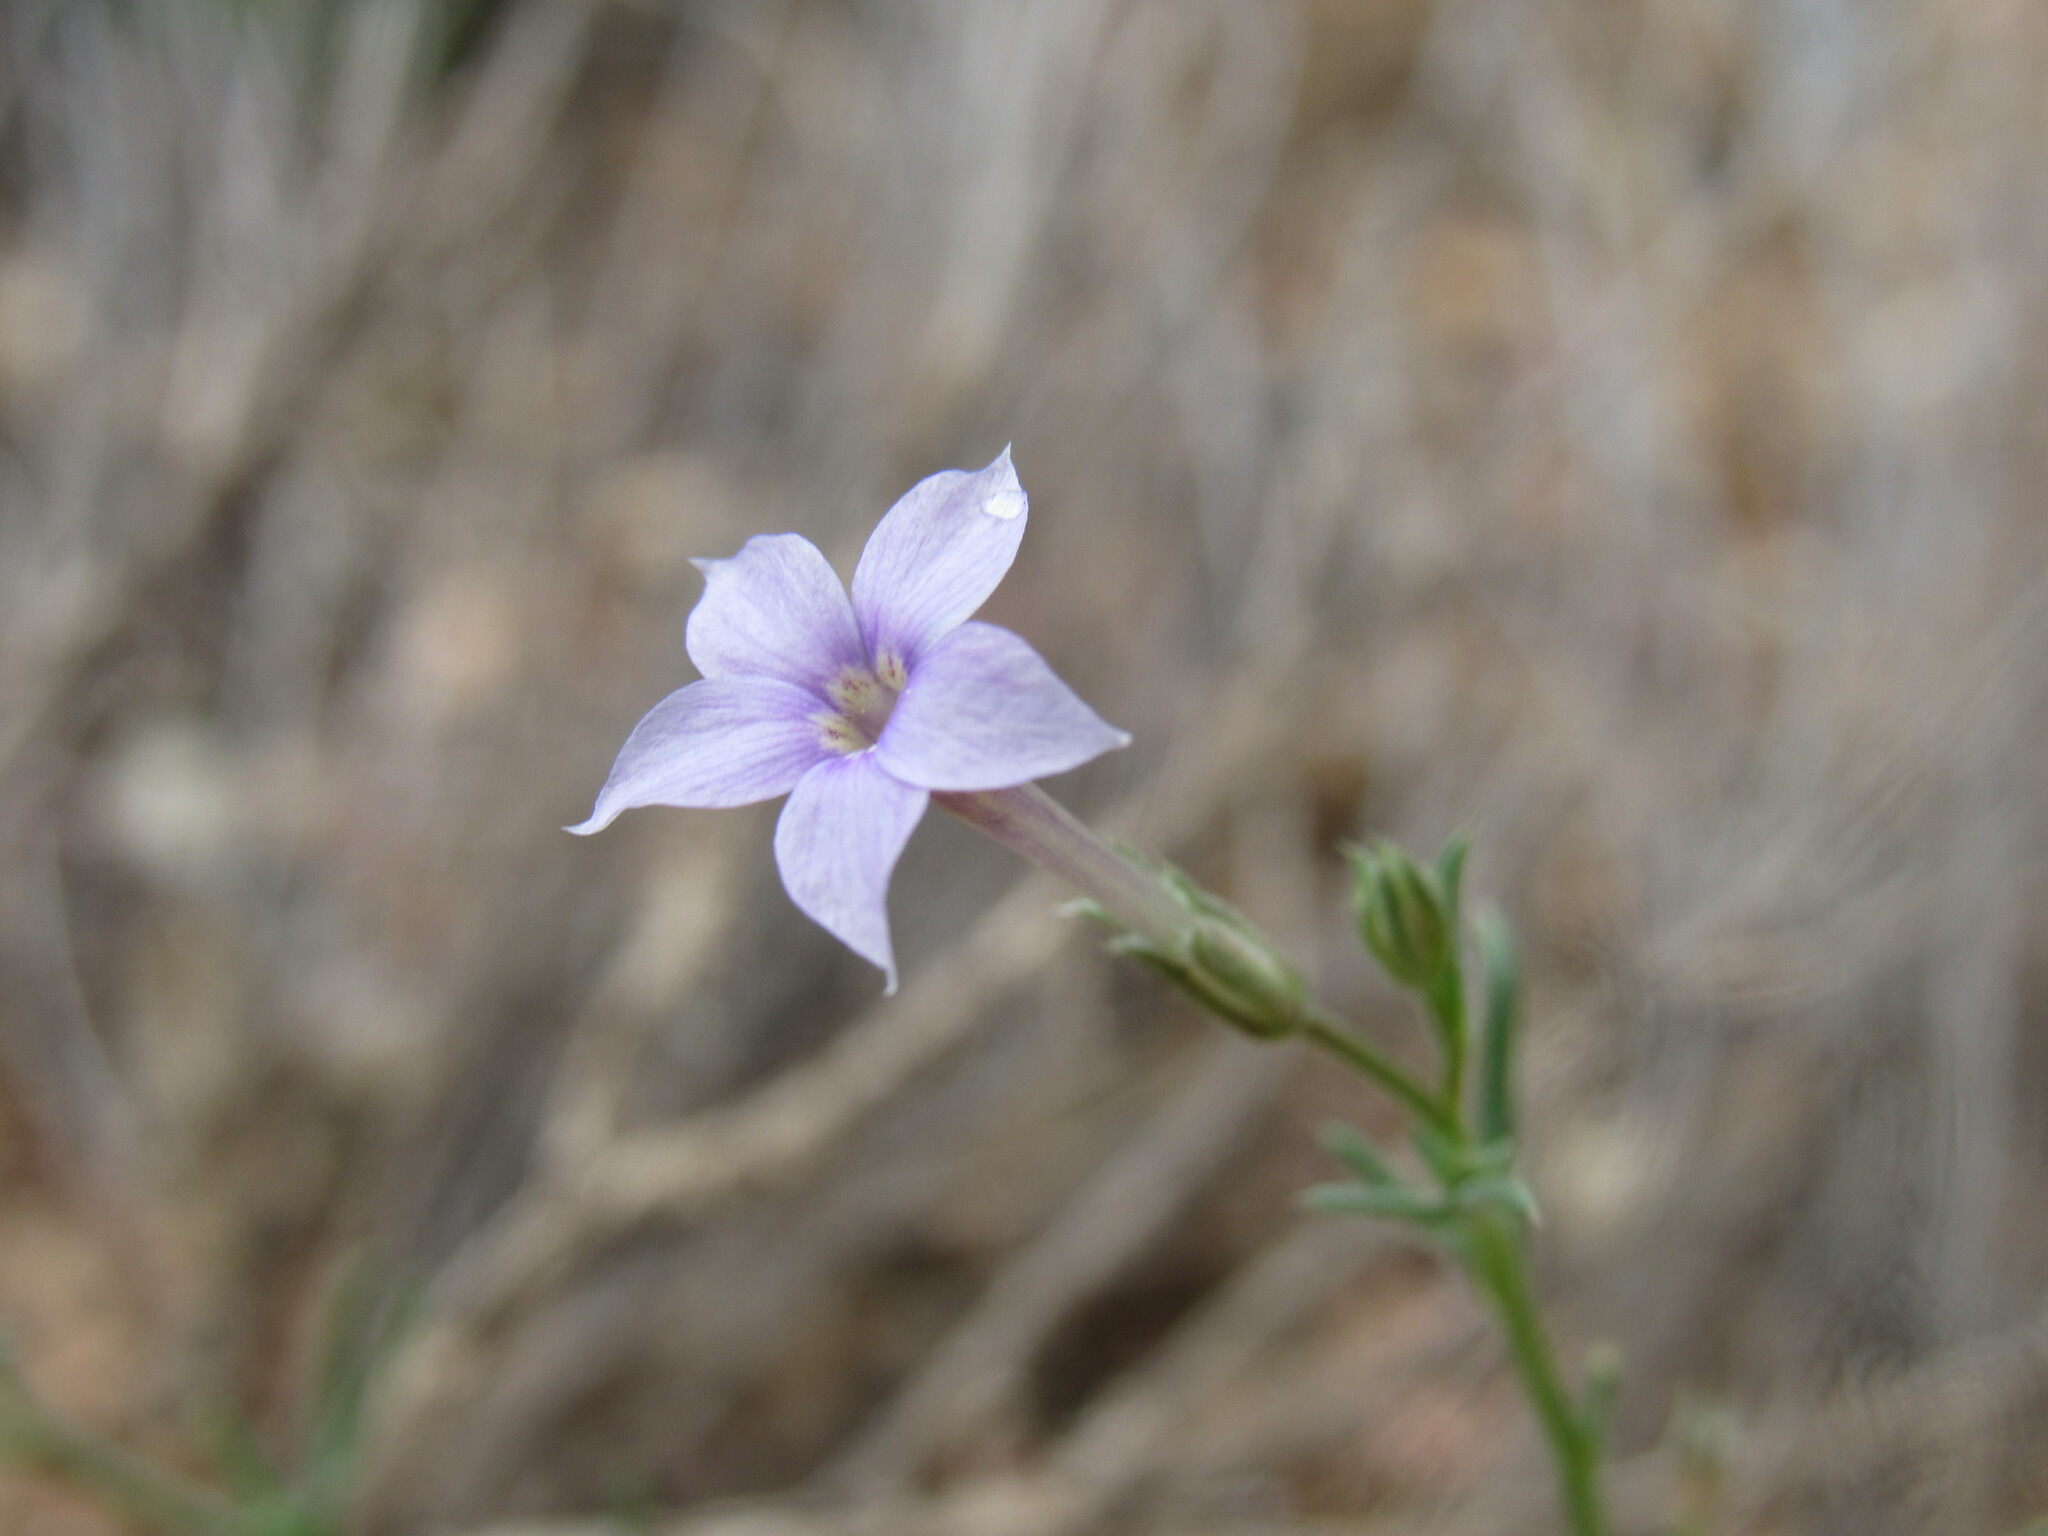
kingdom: Plantae
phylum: Tracheophyta
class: Magnoliopsida
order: Ericales
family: Polemoniaceae
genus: Ipomopsis
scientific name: Ipomopsis laxiflora
